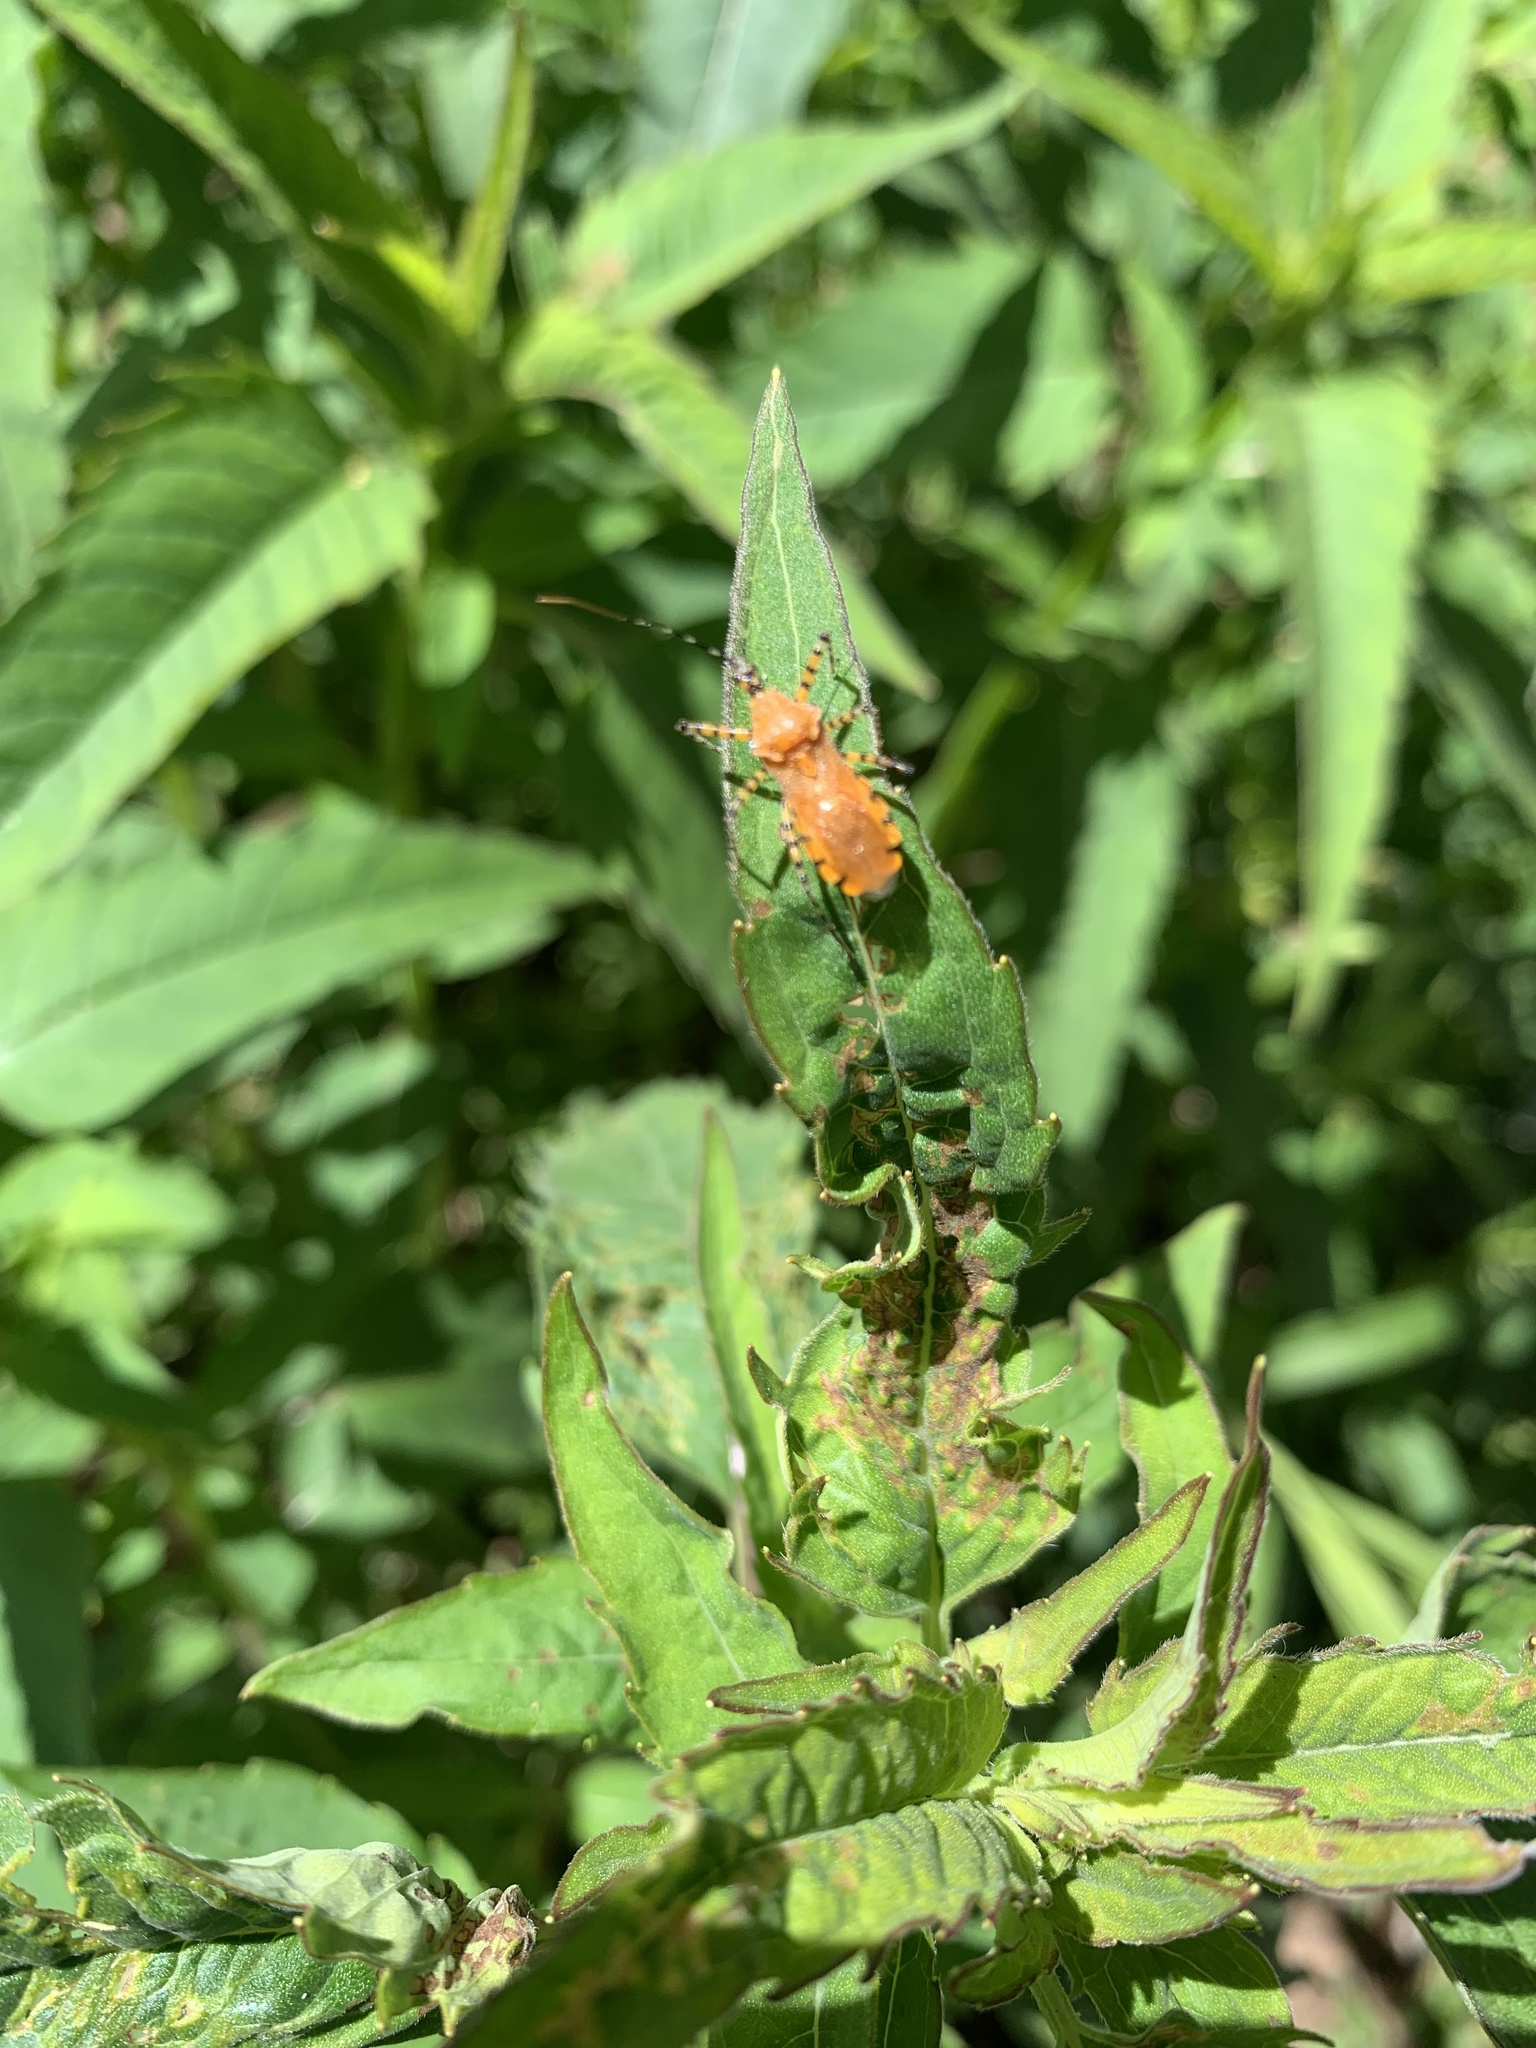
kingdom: Animalia
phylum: Arthropoda
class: Insecta
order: Hemiptera
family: Reduviidae
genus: Pselliopus
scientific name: Pselliopus barberi
